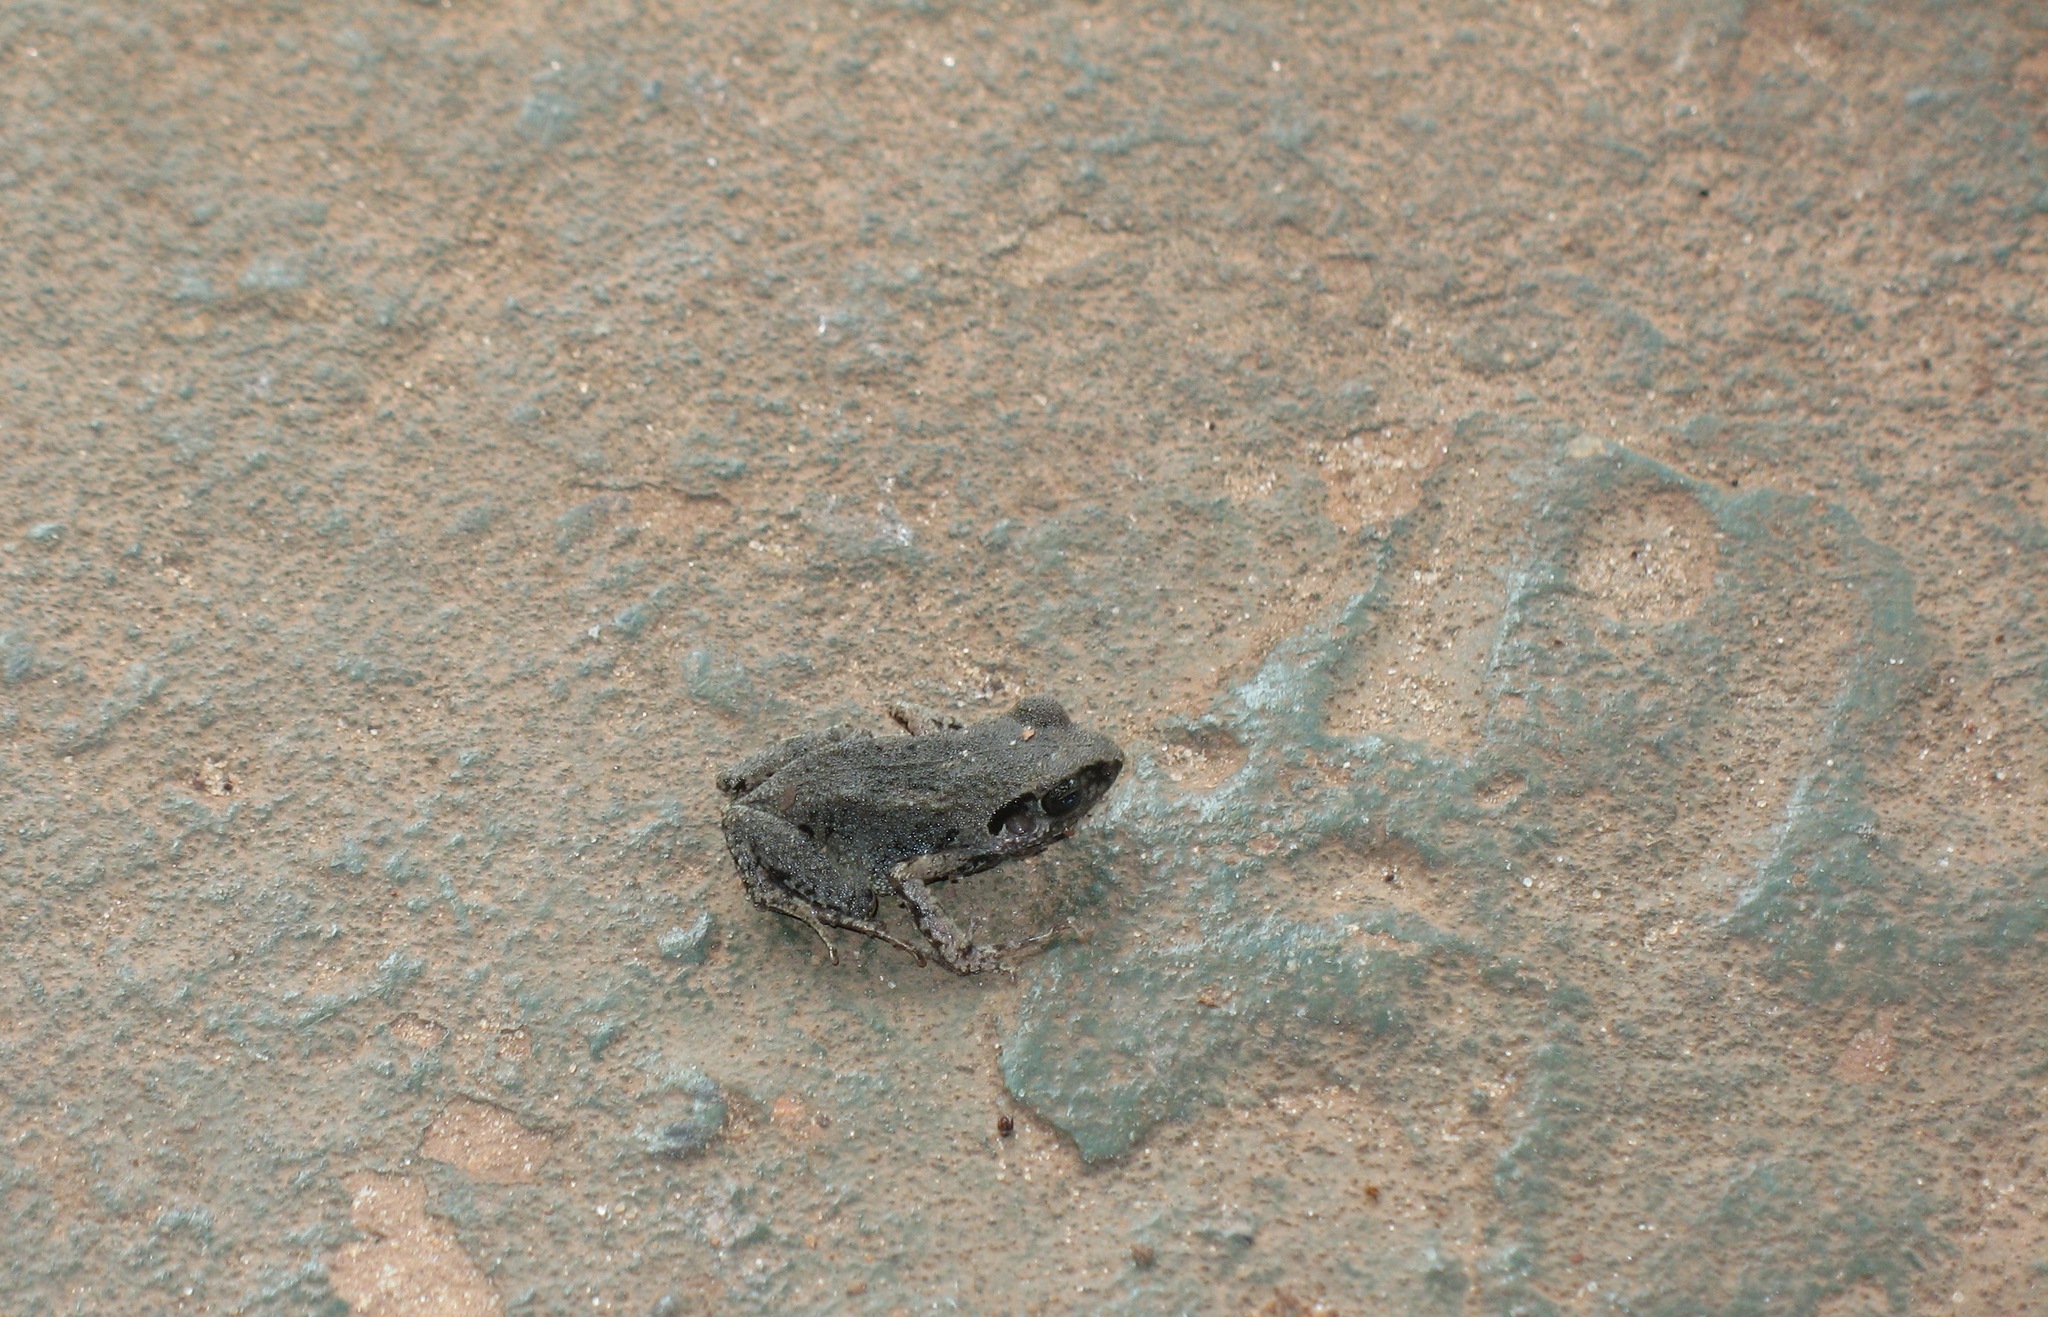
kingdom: Animalia
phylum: Chordata
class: Amphibia
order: Anura
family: Arthroleptidae
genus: Arthroleptis
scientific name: Arthroleptis poecilonotus
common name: West african screeching frog
